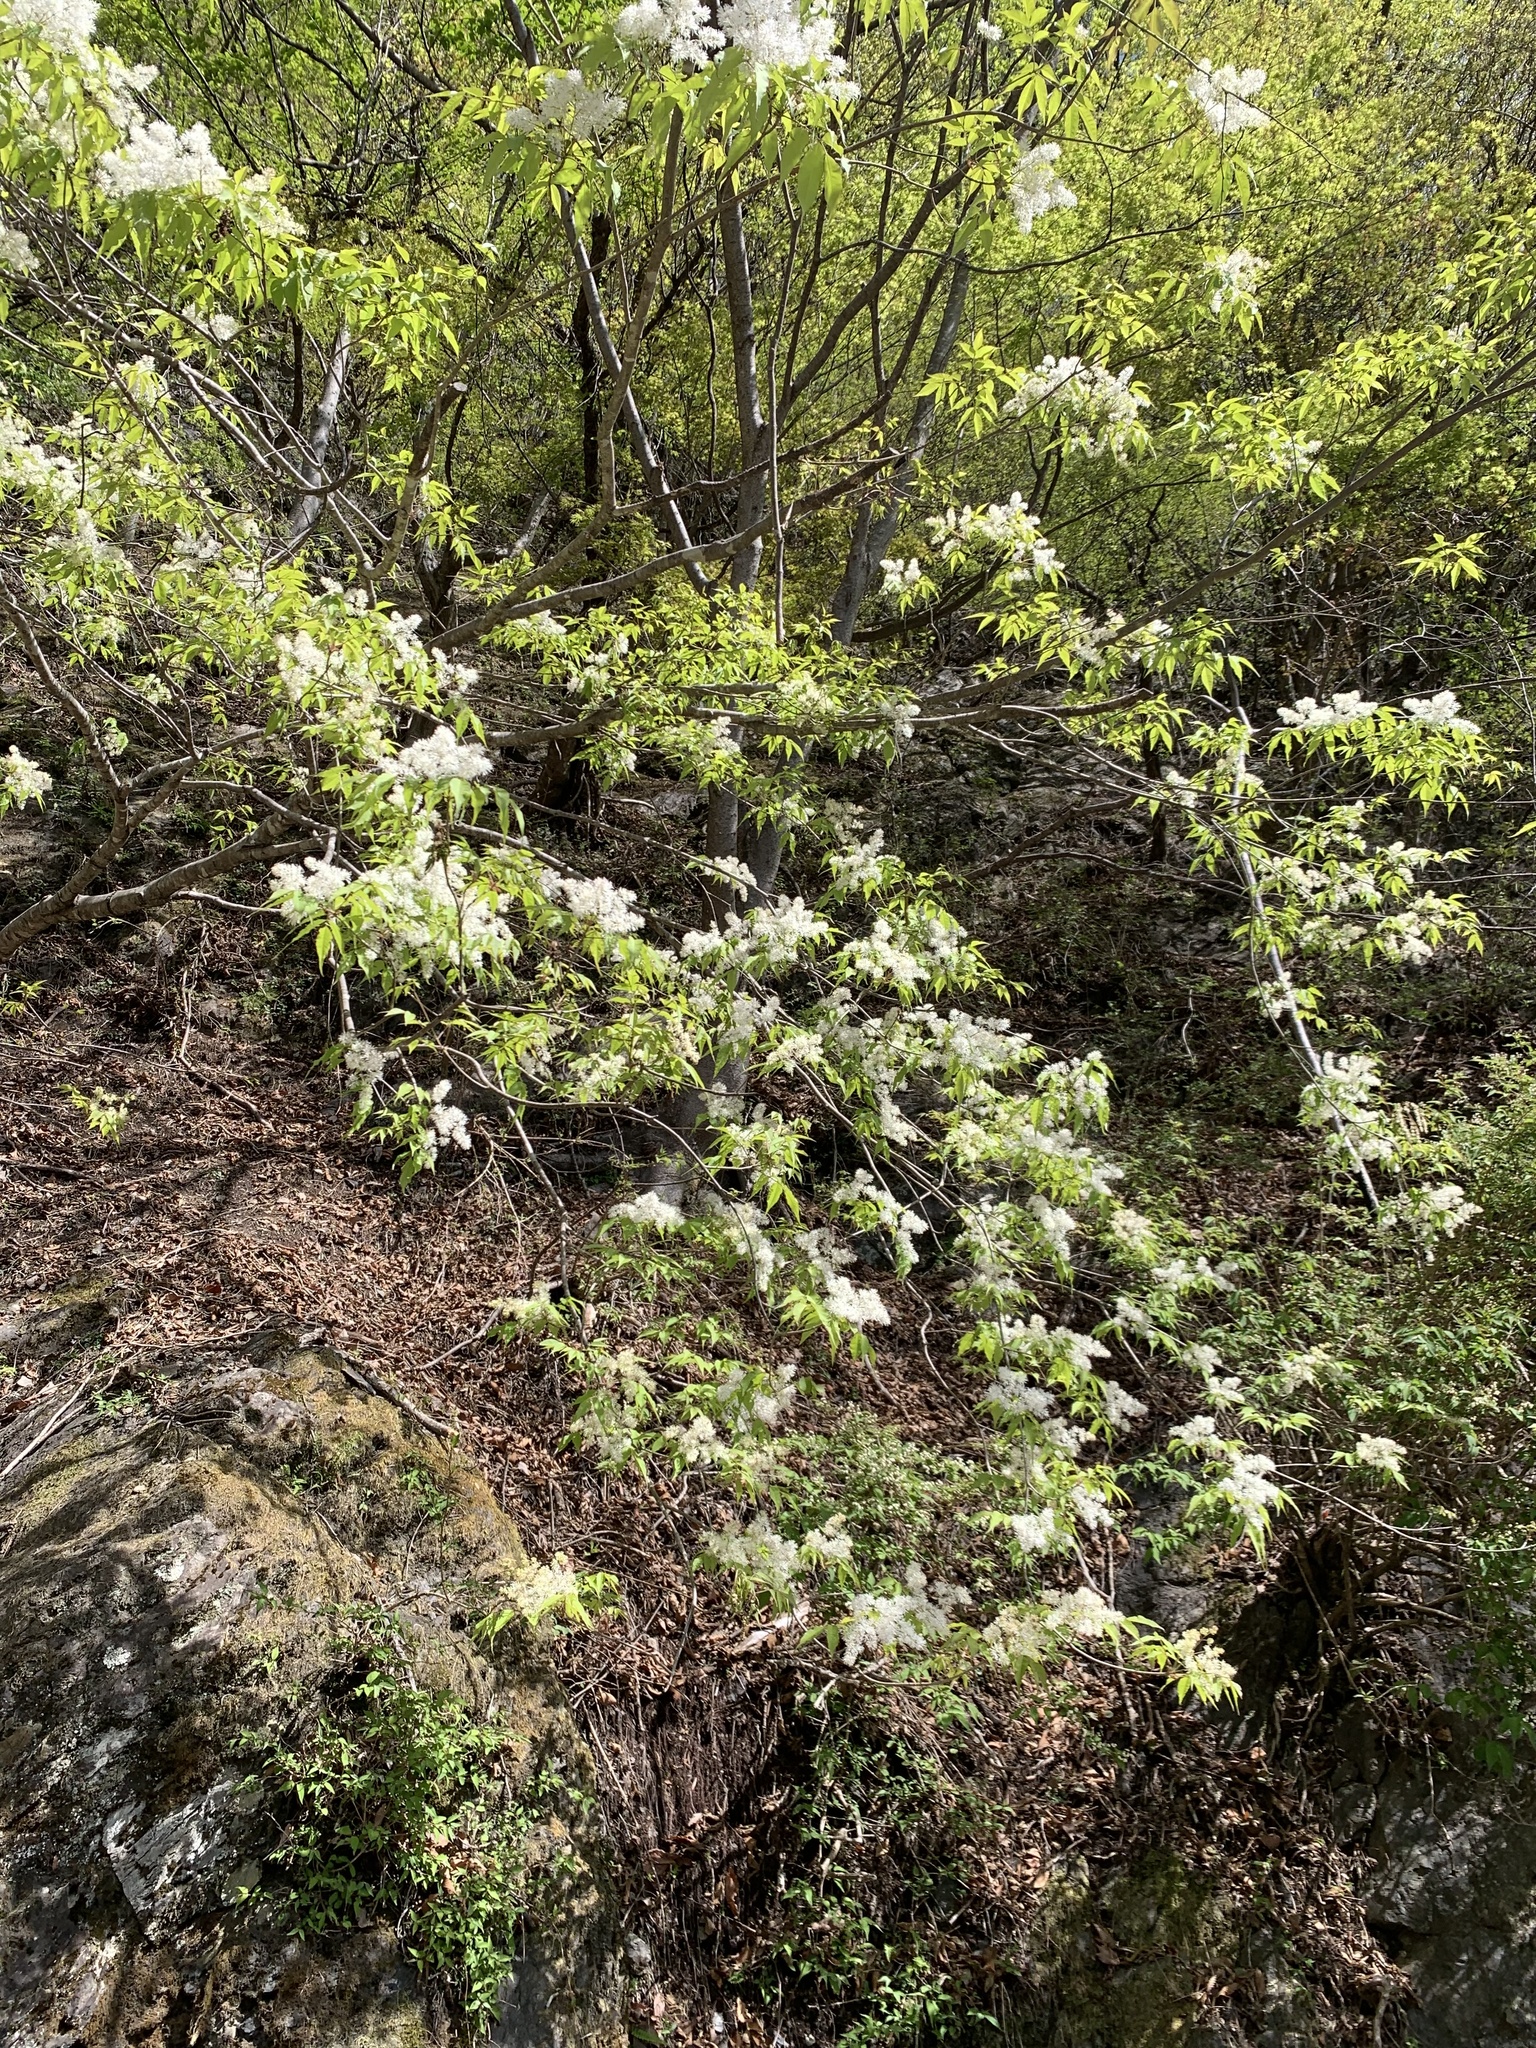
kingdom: Plantae
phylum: Tracheophyta
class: Magnoliopsida
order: Lamiales
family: Oleaceae
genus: Fraxinus
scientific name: Fraxinus sieboldiana
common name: Chinese flowering ash
